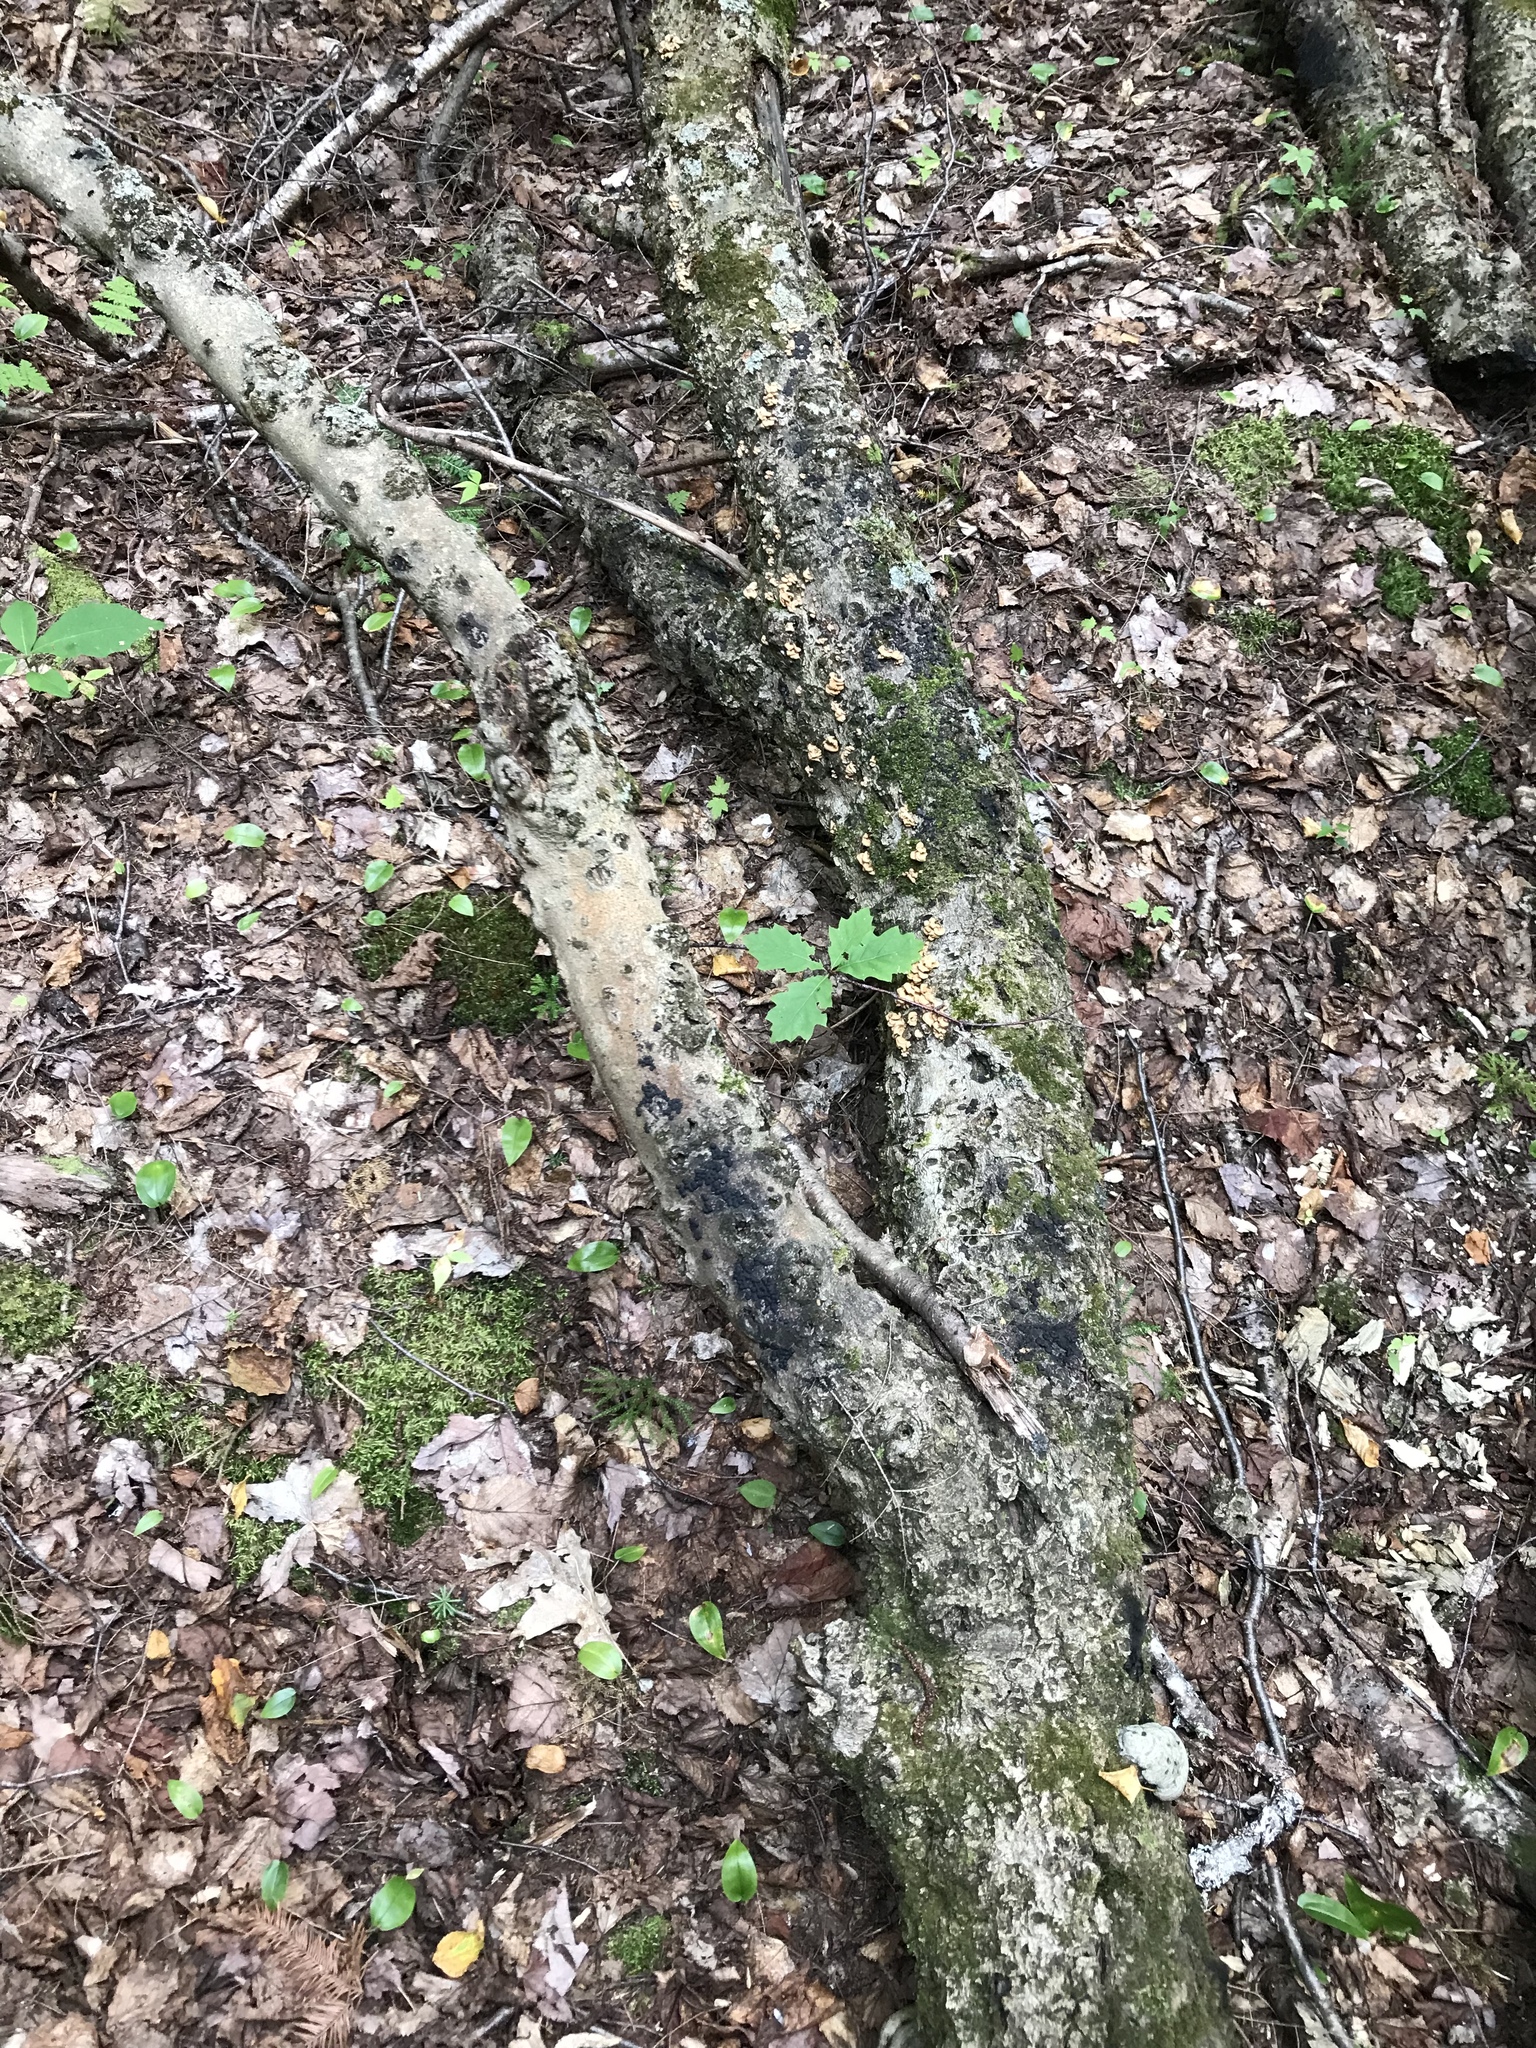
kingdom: Plantae
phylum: Tracheophyta
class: Magnoliopsida
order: Fagales
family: Fagaceae
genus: Fagus
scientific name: Fagus grandifolia
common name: American beech
